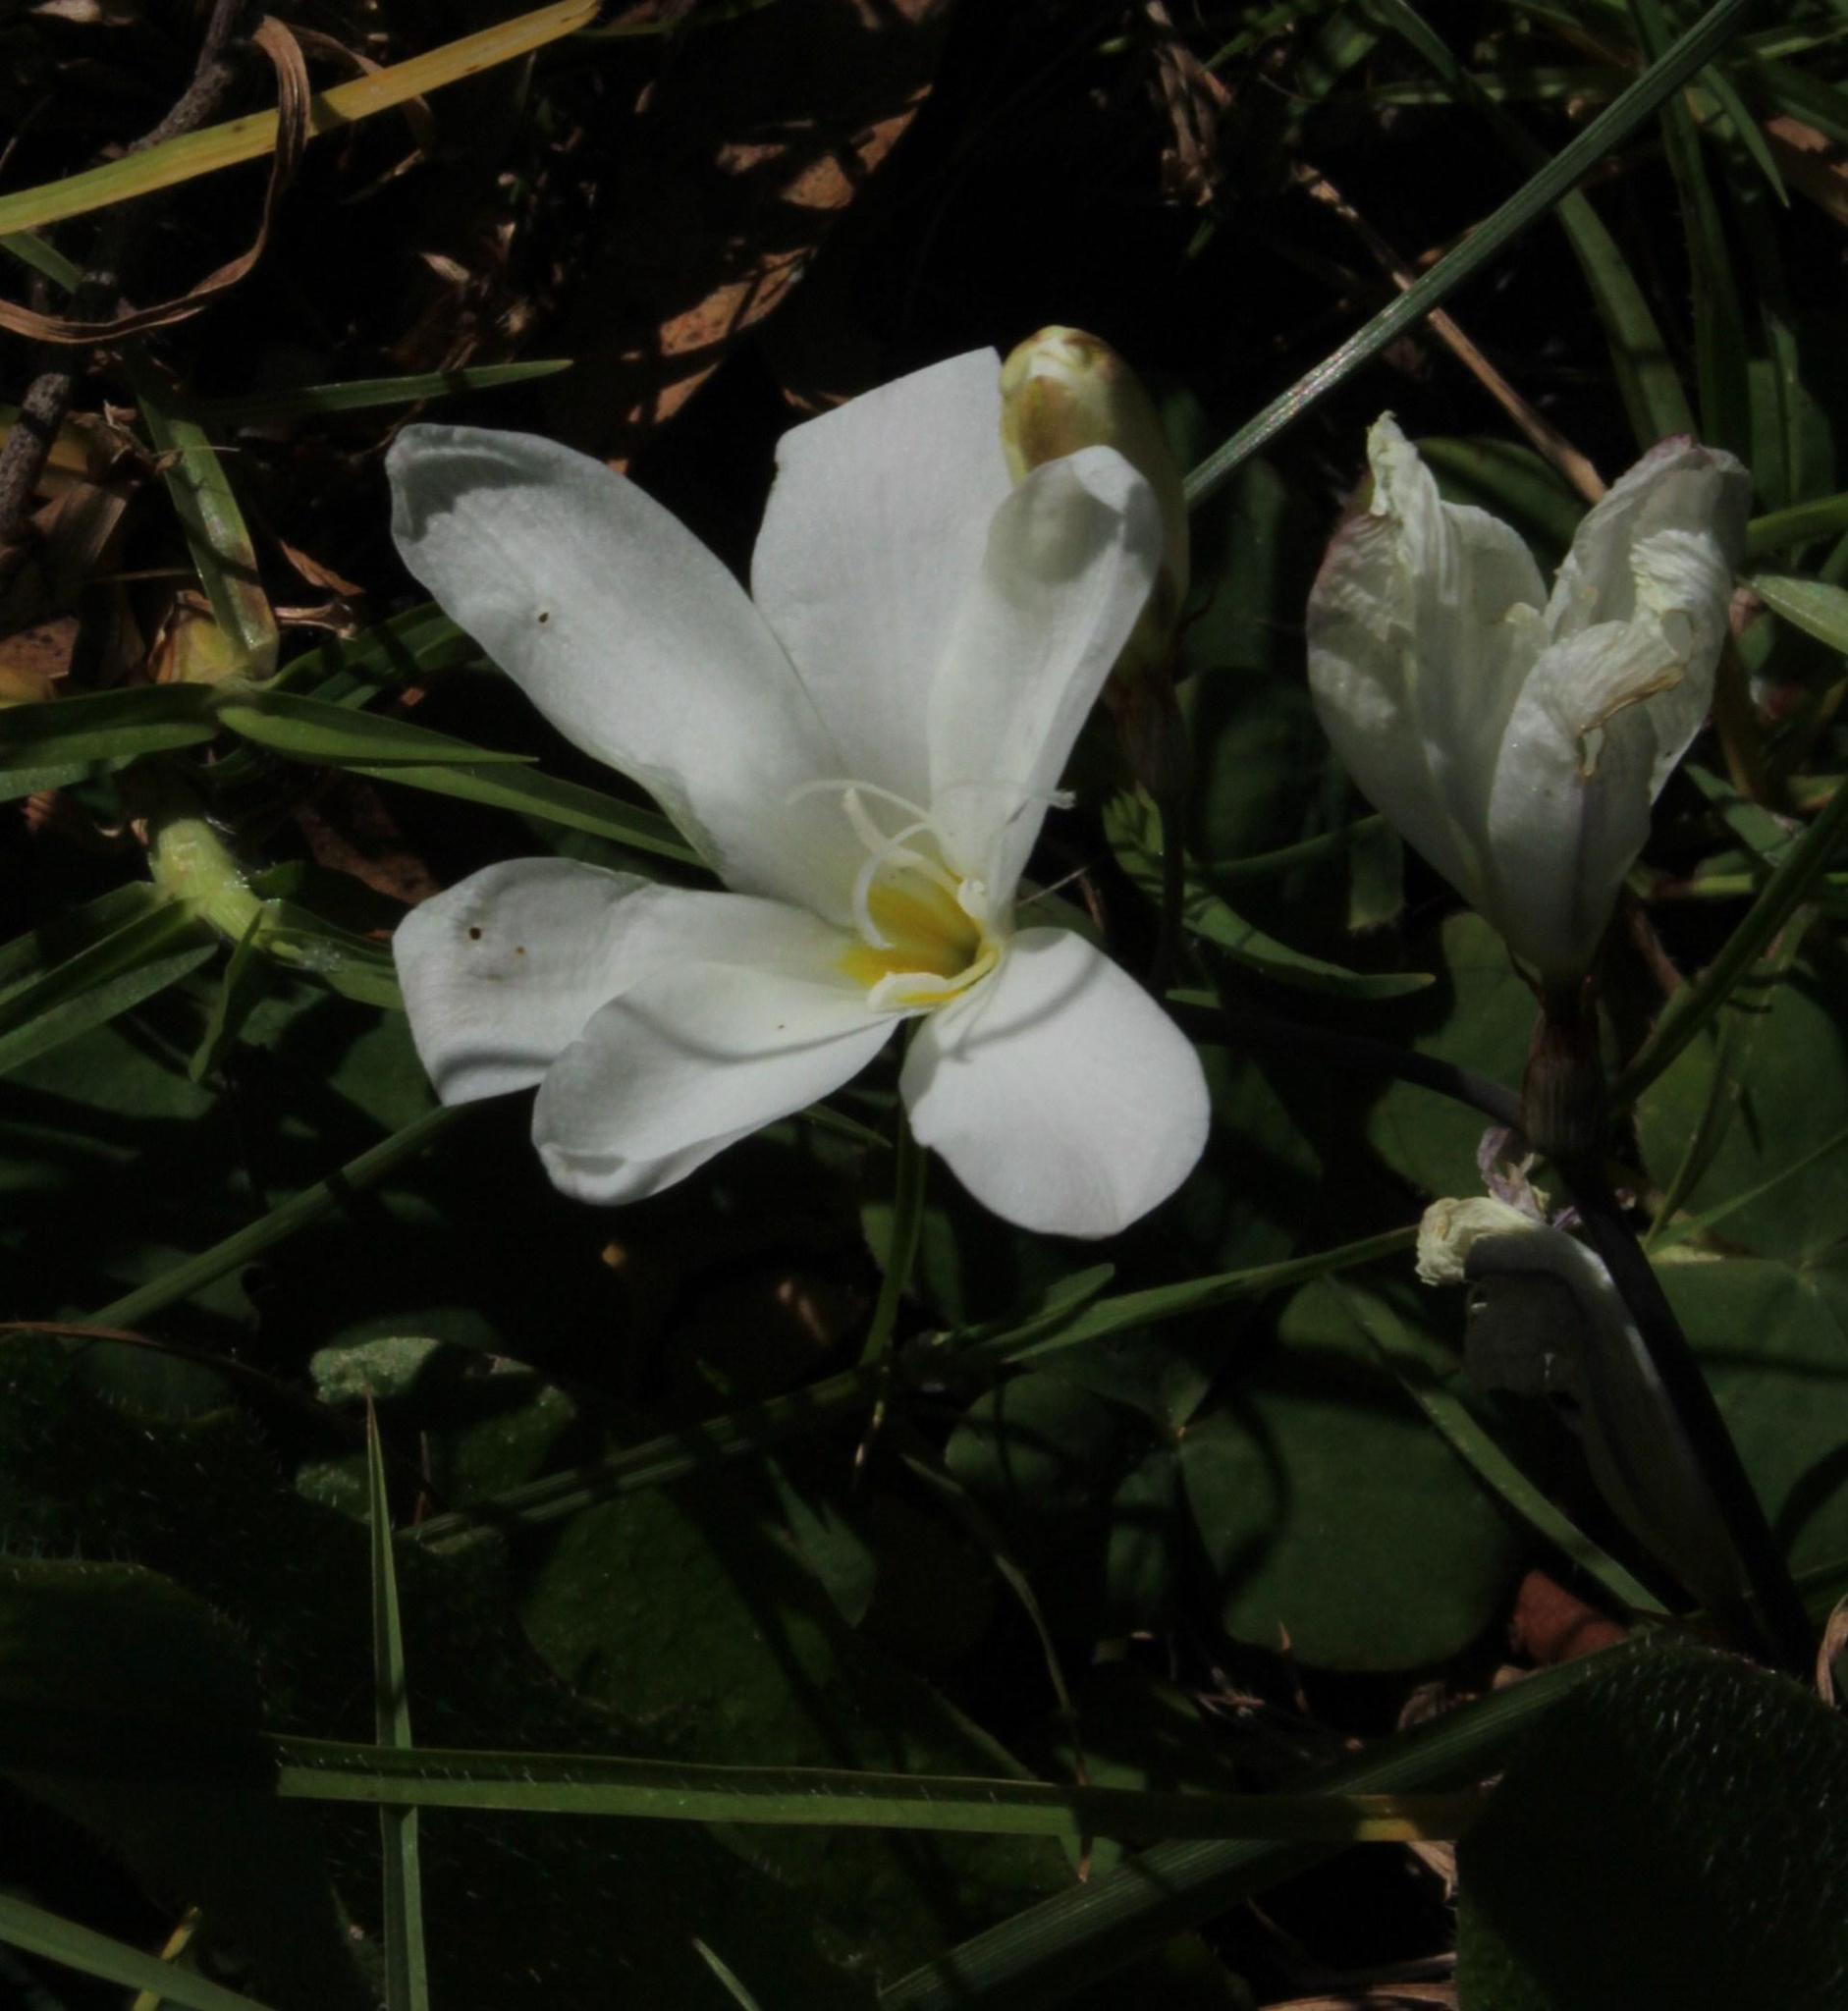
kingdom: Plantae
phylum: Tracheophyta
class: Liliopsida
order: Asparagales
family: Iridaceae
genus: Sparaxis
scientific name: Sparaxis grandiflora
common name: Plain harlequin-flower
